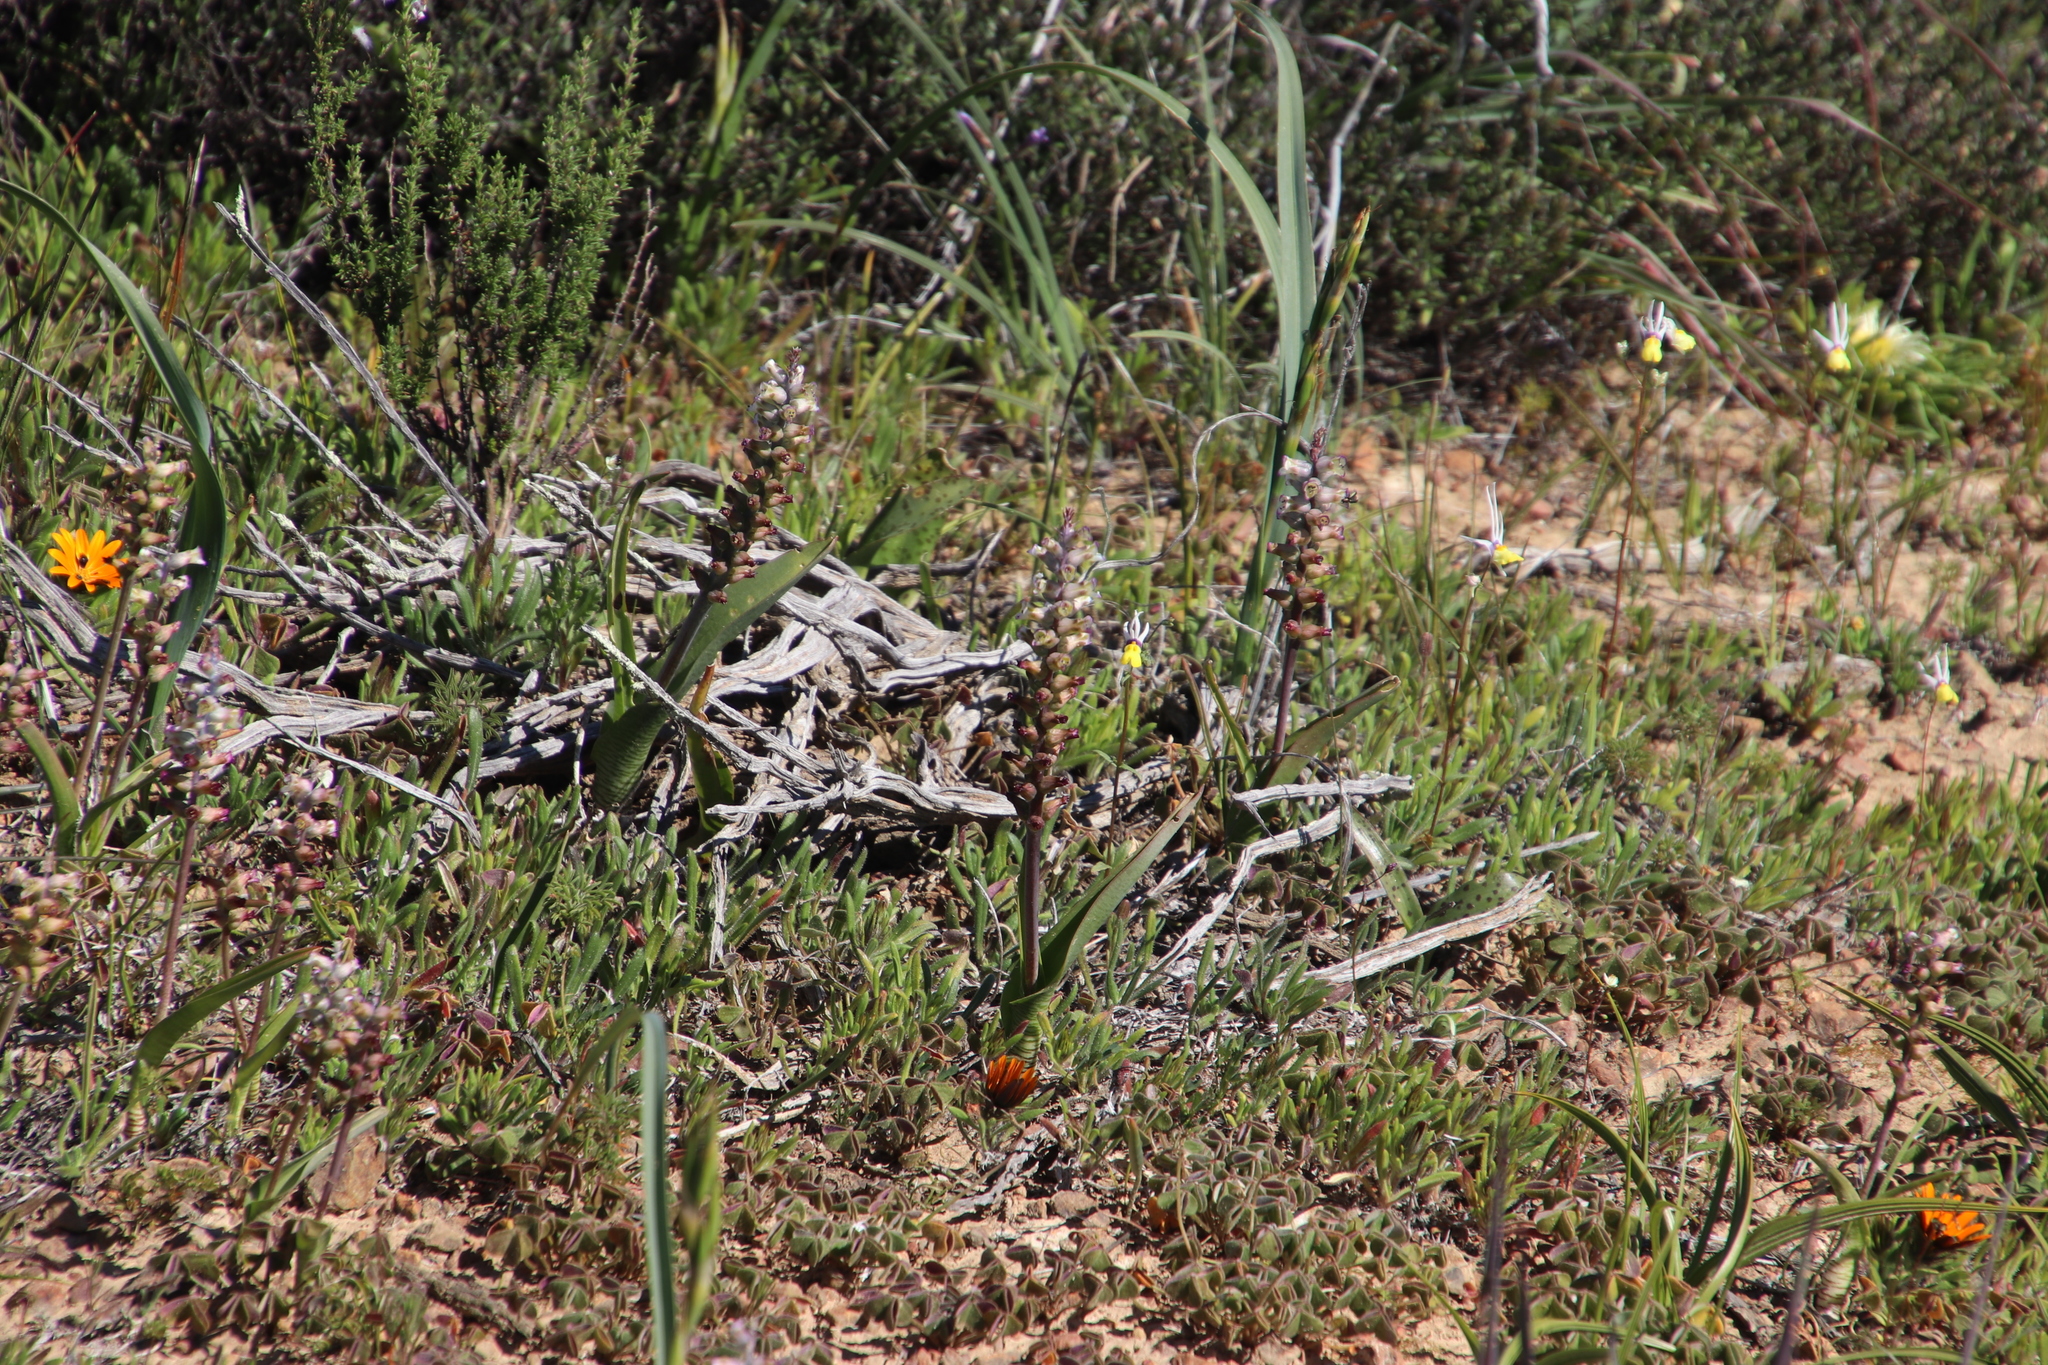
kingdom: Plantae
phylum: Tracheophyta
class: Liliopsida
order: Asparagales
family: Asparagaceae
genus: Lachenalia
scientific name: Lachenalia obscura
